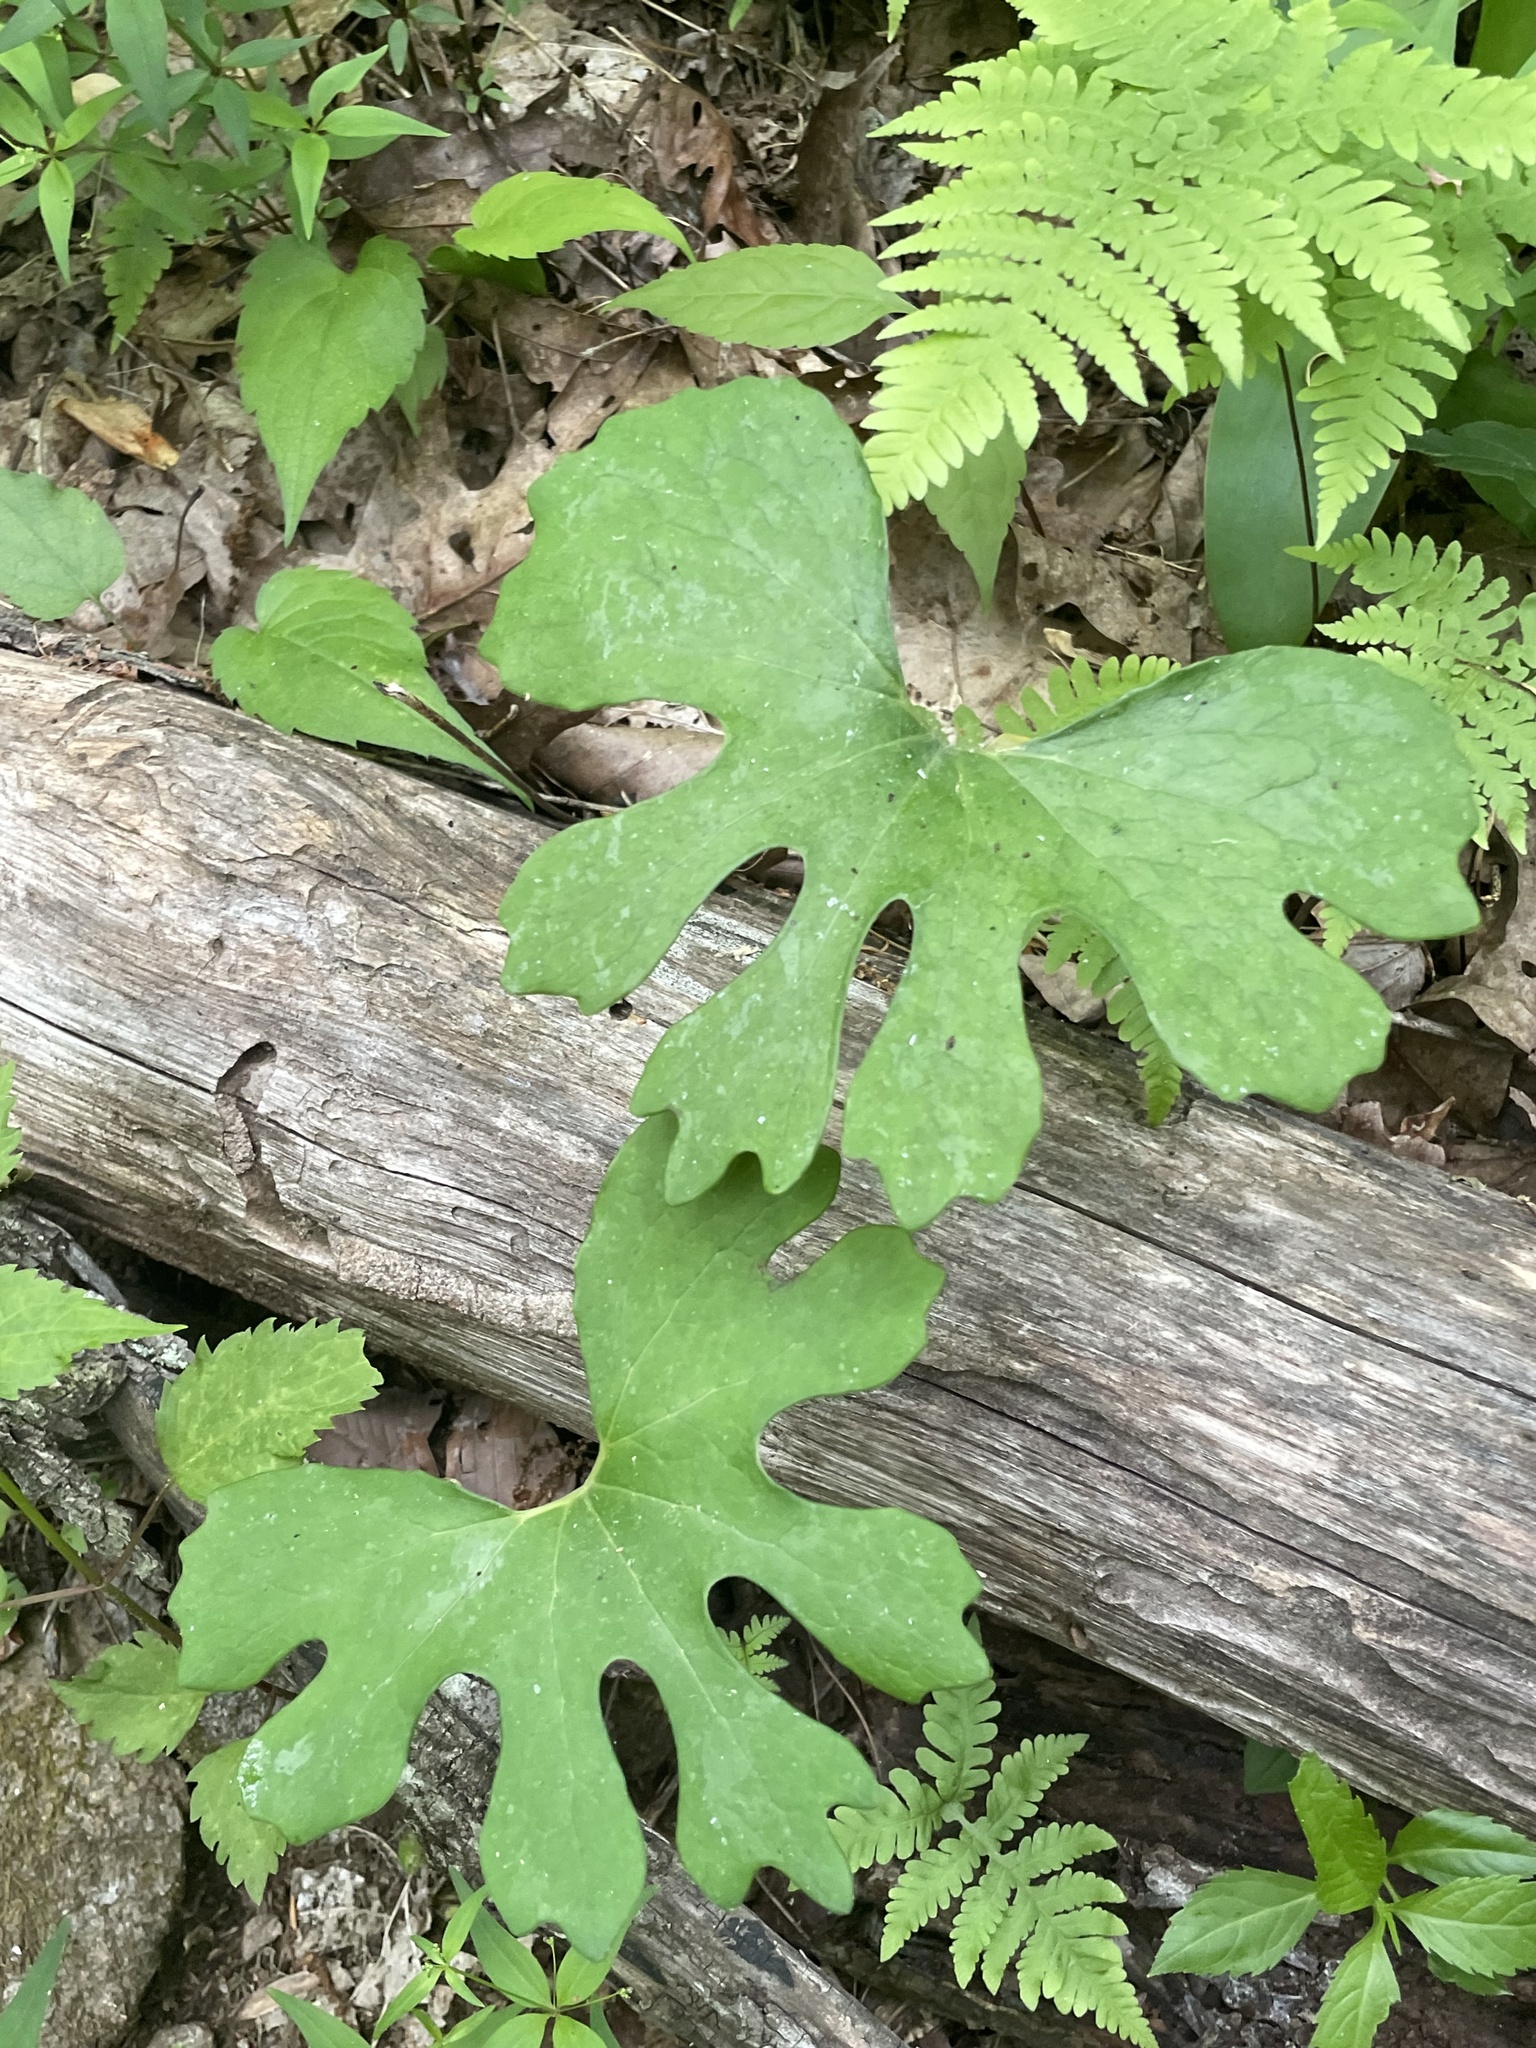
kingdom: Plantae
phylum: Tracheophyta
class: Magnoliopsida
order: Ranunculales
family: Papaveraceae
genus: Sanguinaria
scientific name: Sanguinaria canadensis
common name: Bloodroot
